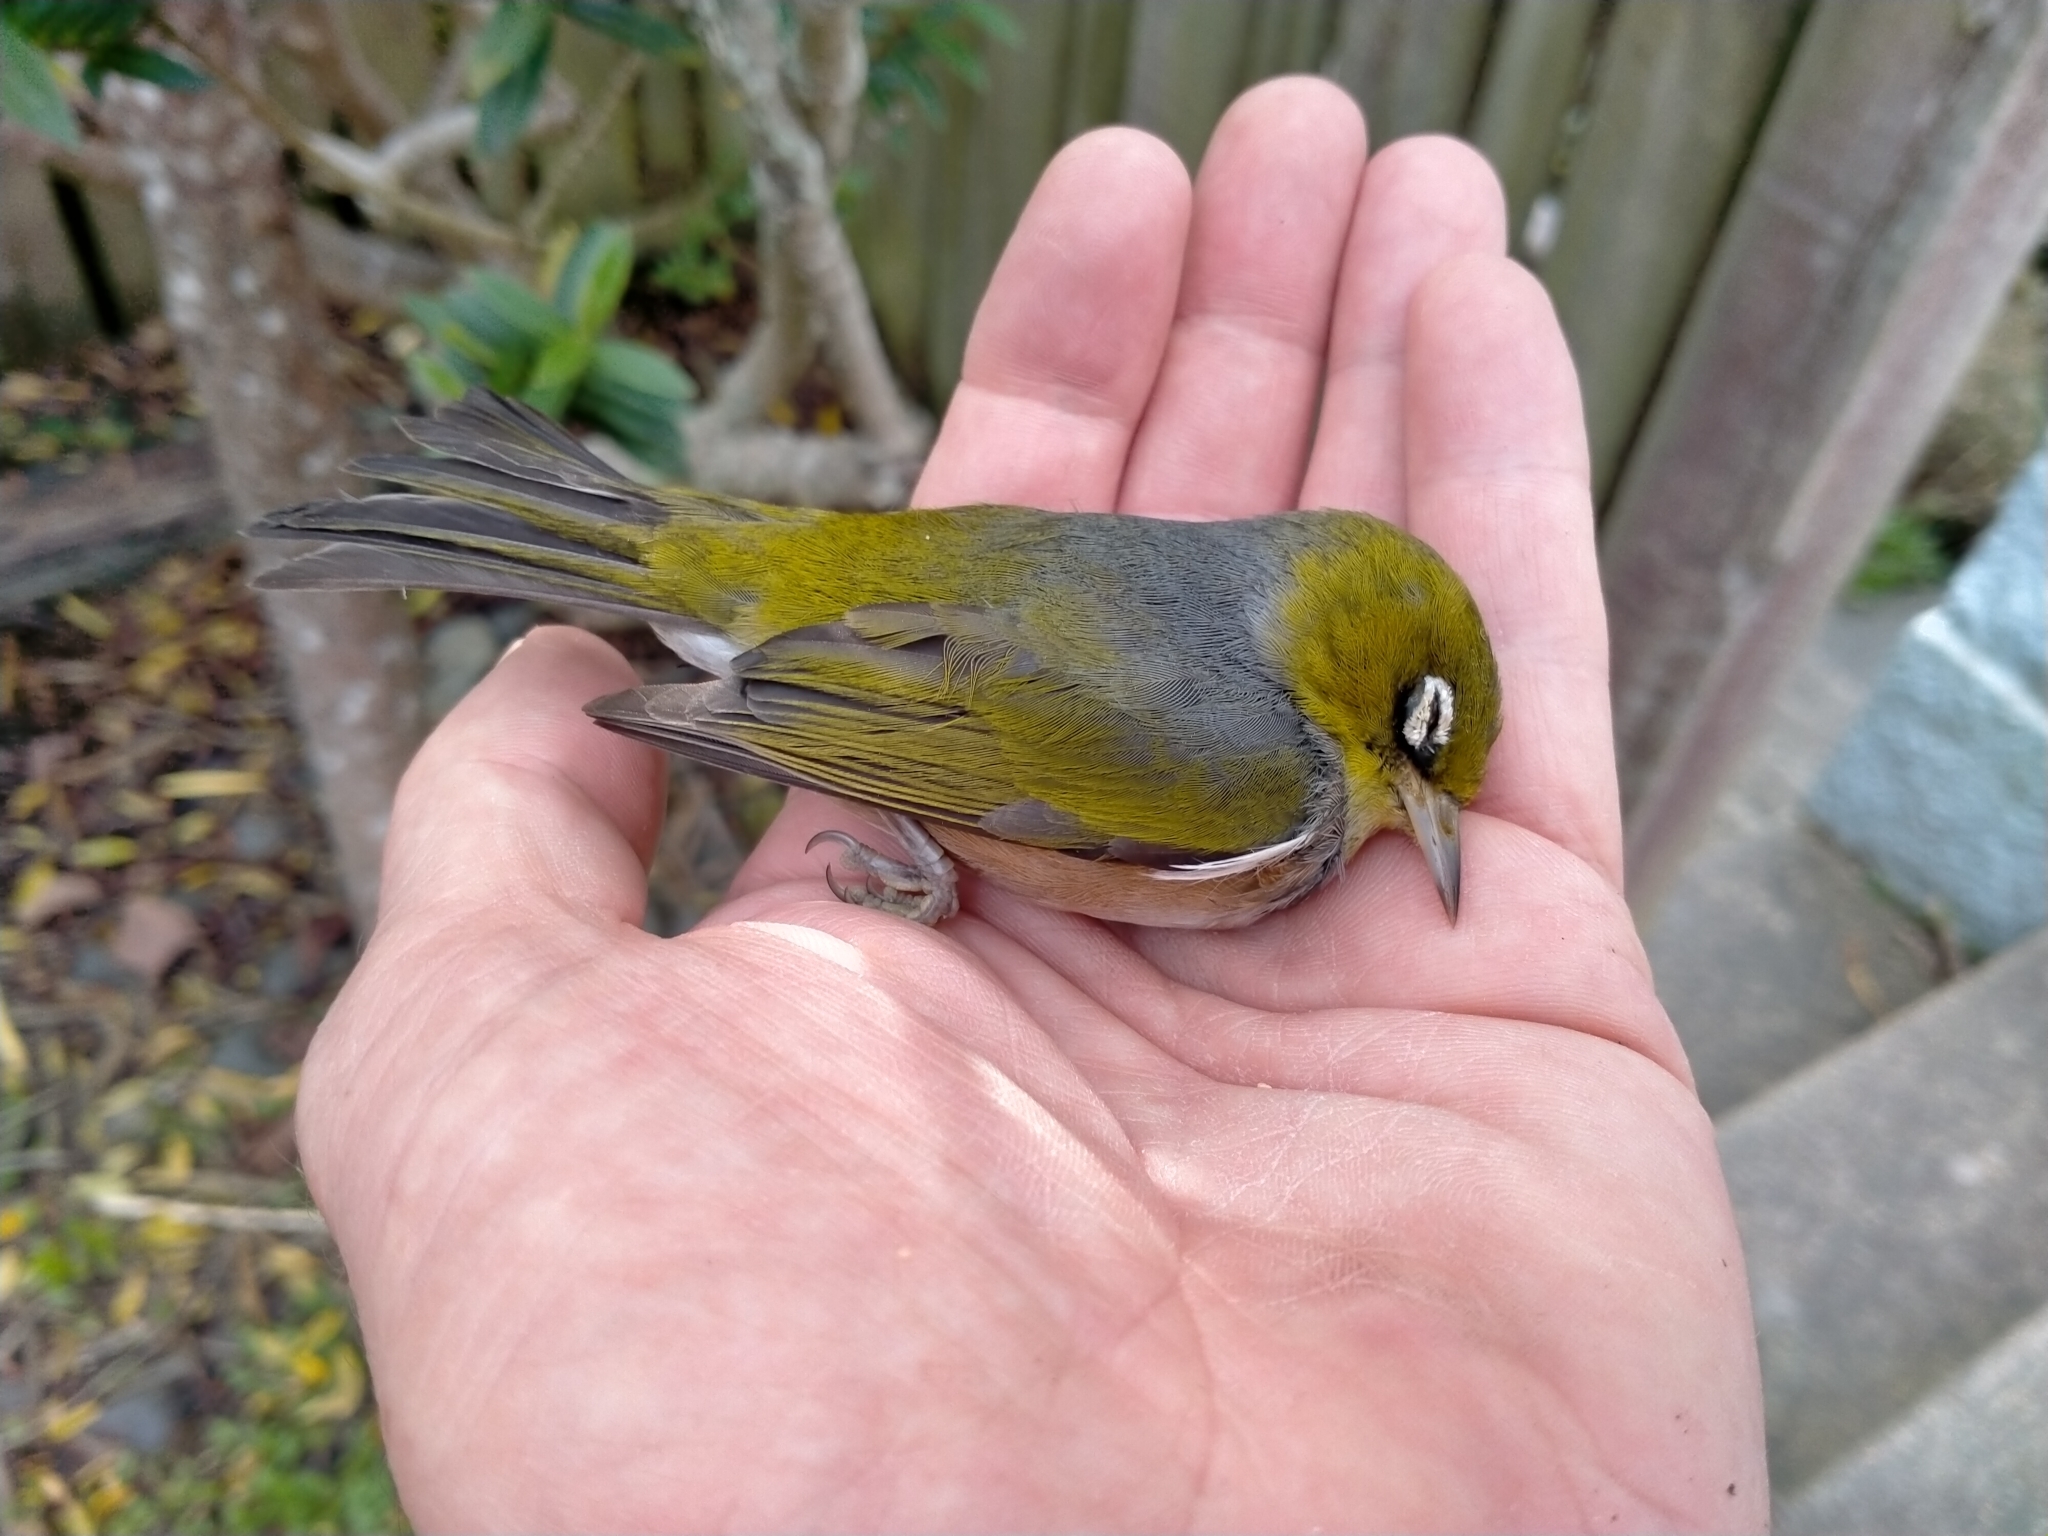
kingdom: Animalia
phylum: Chordata
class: Aves
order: Passeriformes
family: Zosteropidae
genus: Zosterops
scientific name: Zosterops lateralis
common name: Silvereye
